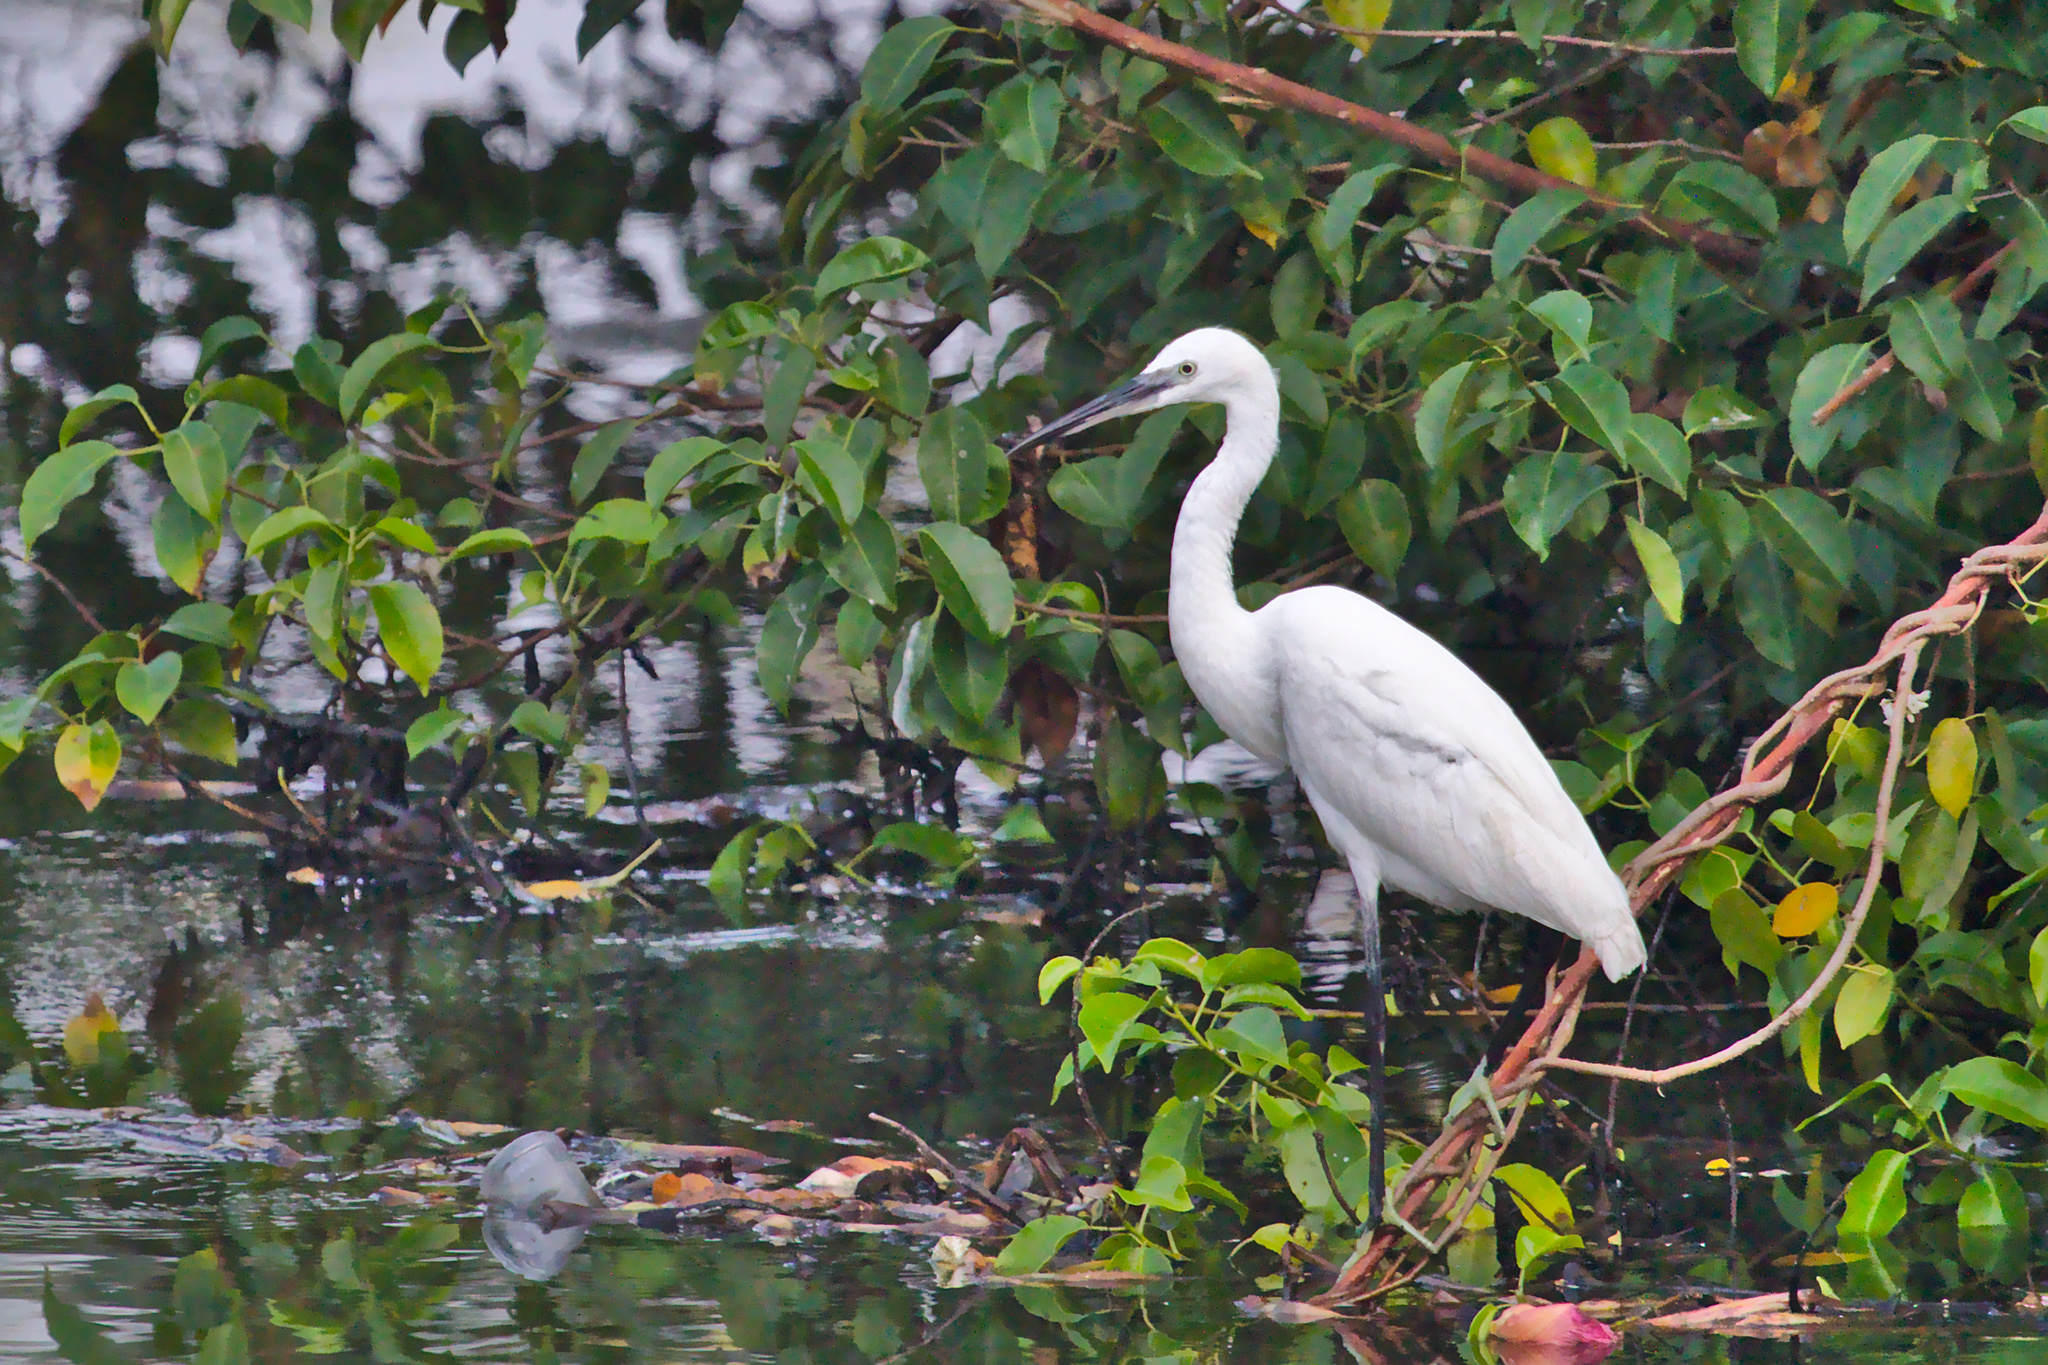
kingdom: Animalia
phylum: Chordata
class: Aves
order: Pelecaniformes
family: Ardeidae
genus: Egretta
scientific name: Egretta garzetta
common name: Little egret
